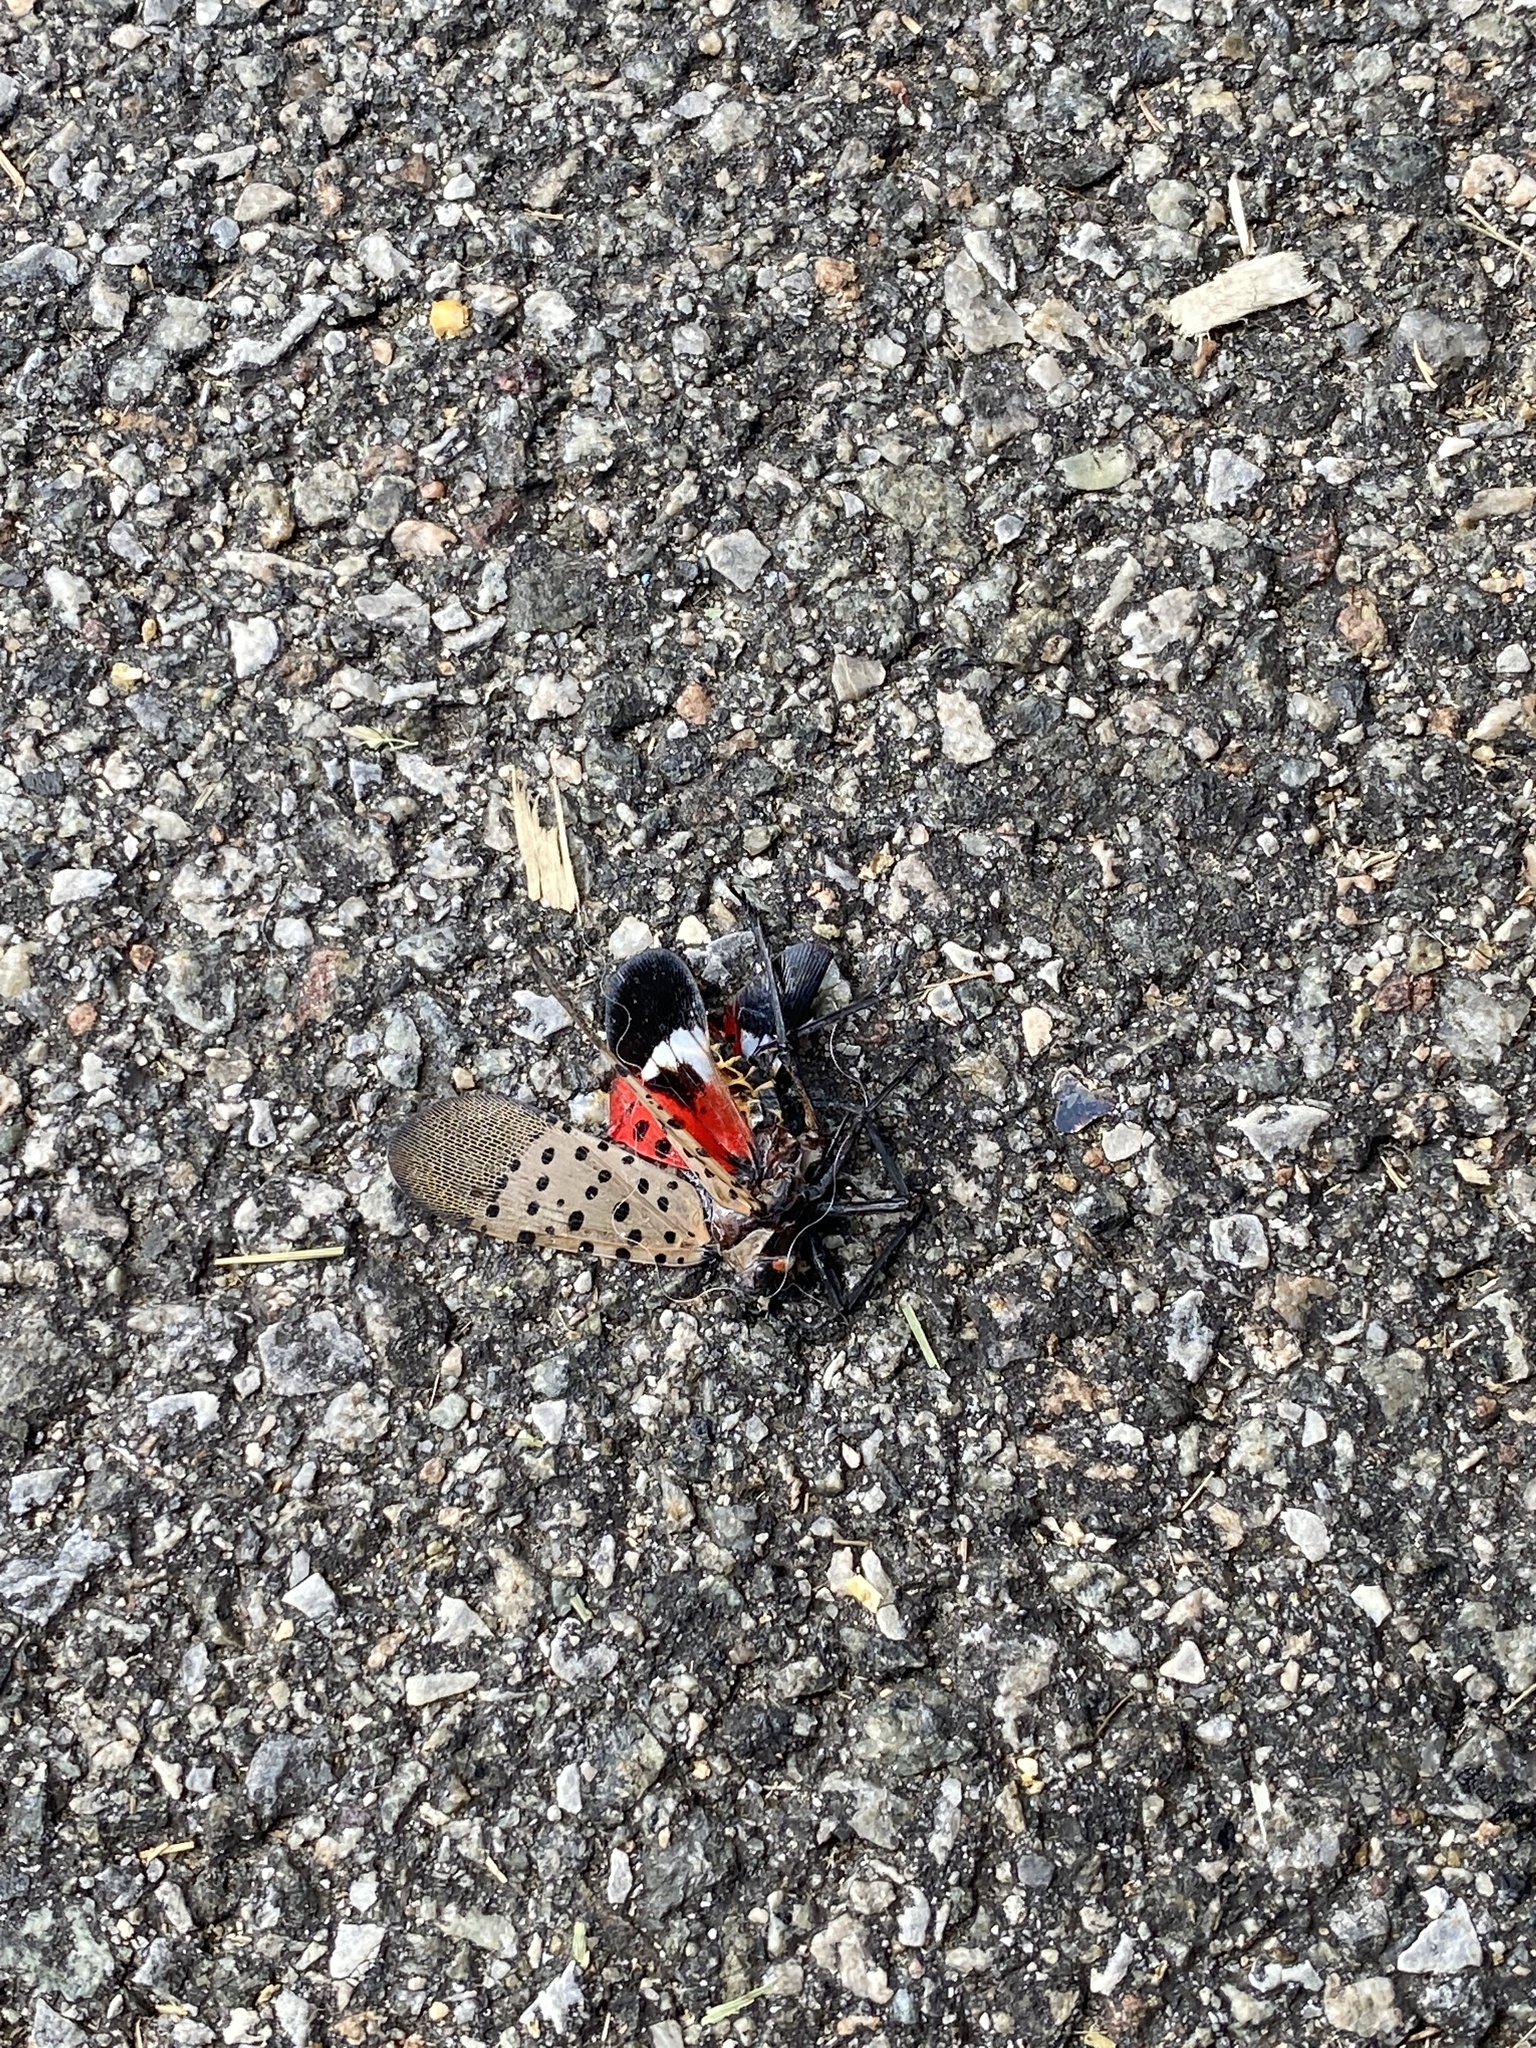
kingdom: Animalia
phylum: Arthropoda
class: Insecta
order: Hemiptera
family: Fulgoridae
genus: Lycorma
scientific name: Lycorma delicatula
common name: Spotted lanternfly
